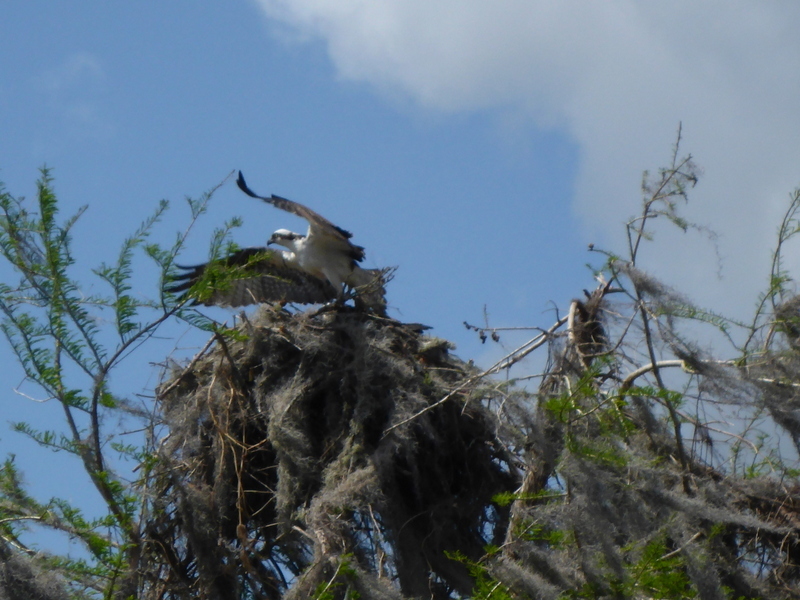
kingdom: Animalia
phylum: Chordata
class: Aves
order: Accipitriformes
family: Pandionidae
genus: Pandion
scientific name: Pandion haliaetus
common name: Osprey
